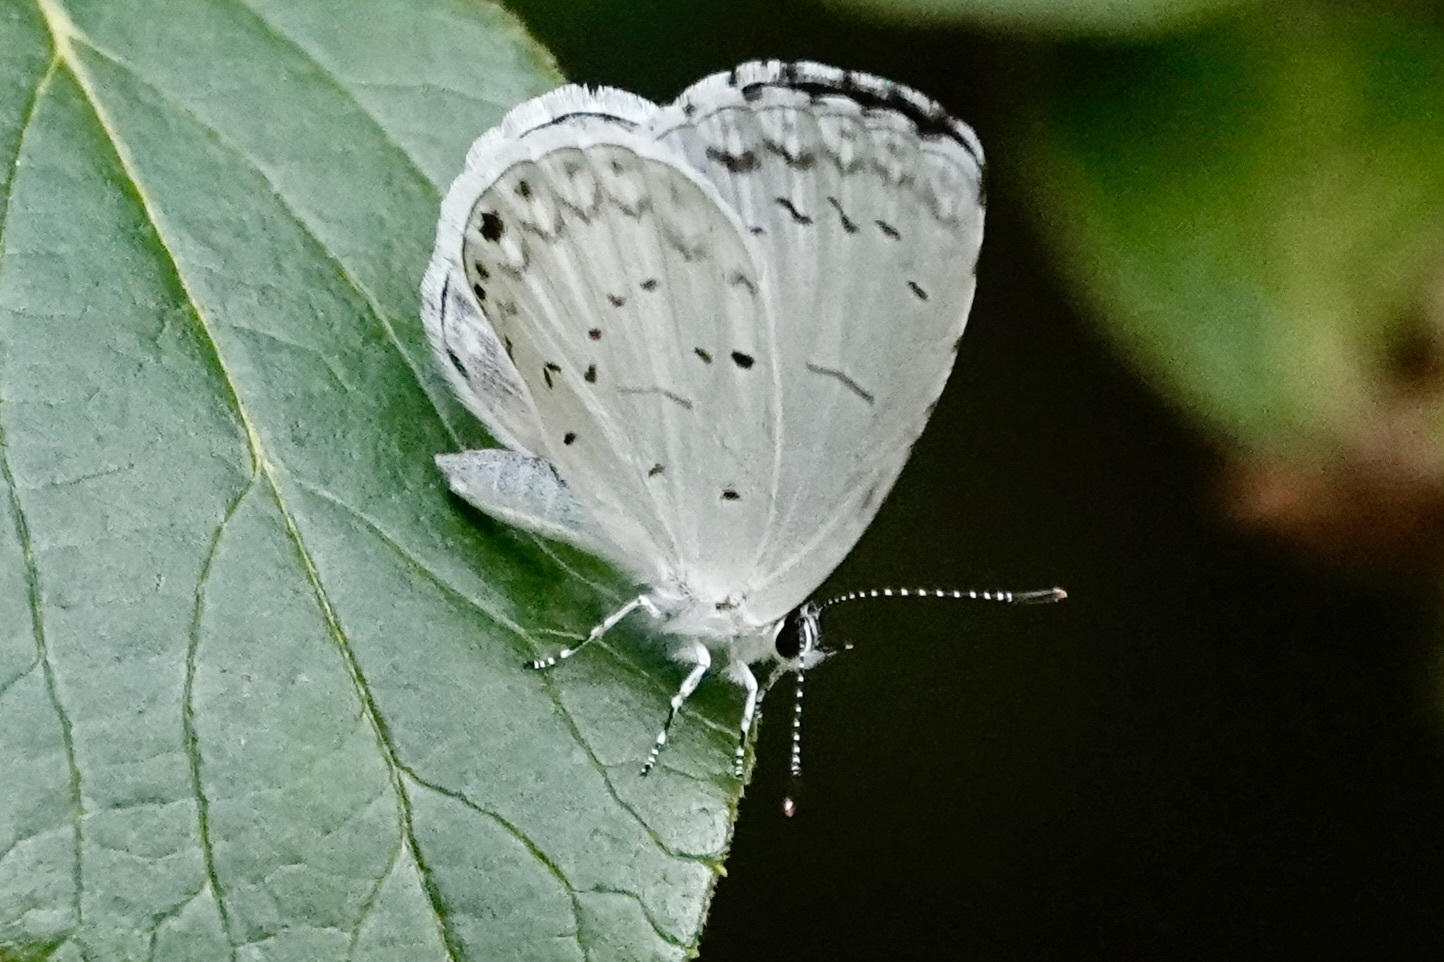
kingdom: Animalia
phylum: Arthropoda
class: Insecta
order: Lepidoptera
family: Lycaenidae
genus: Cyaniris
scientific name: Cyaniris neglecta
